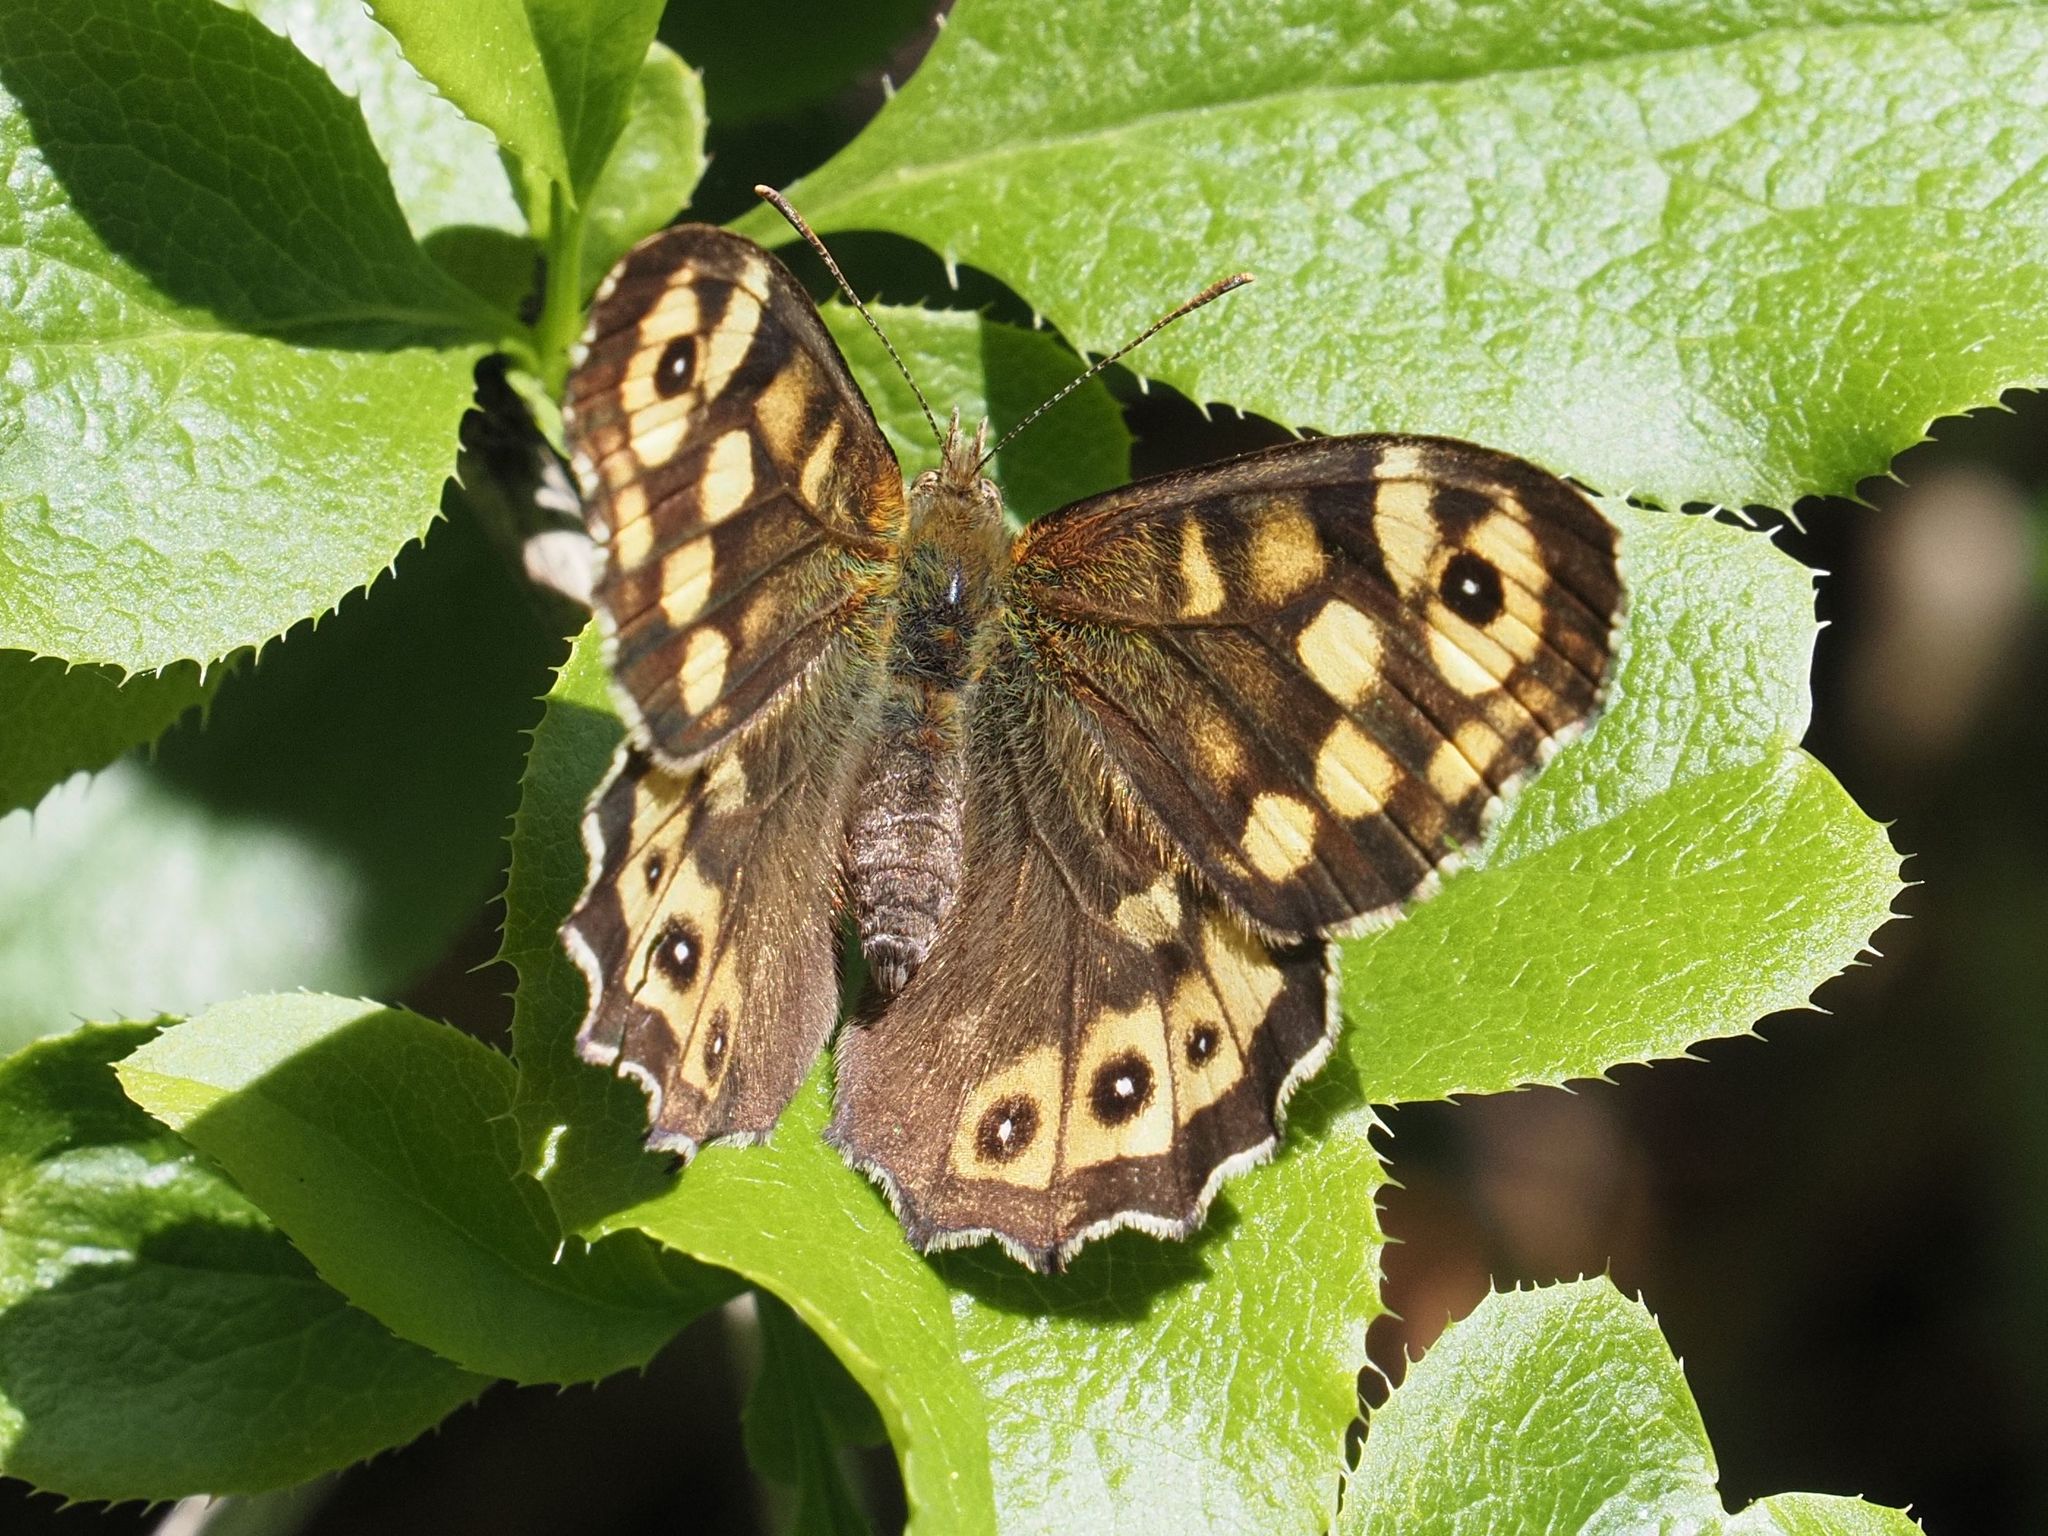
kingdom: Animalia
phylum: Arthropoda
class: Insecta
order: Lepidoptera
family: Nymphalidae
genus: Pararge
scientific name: Pararge aegeria
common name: Speckled wood
